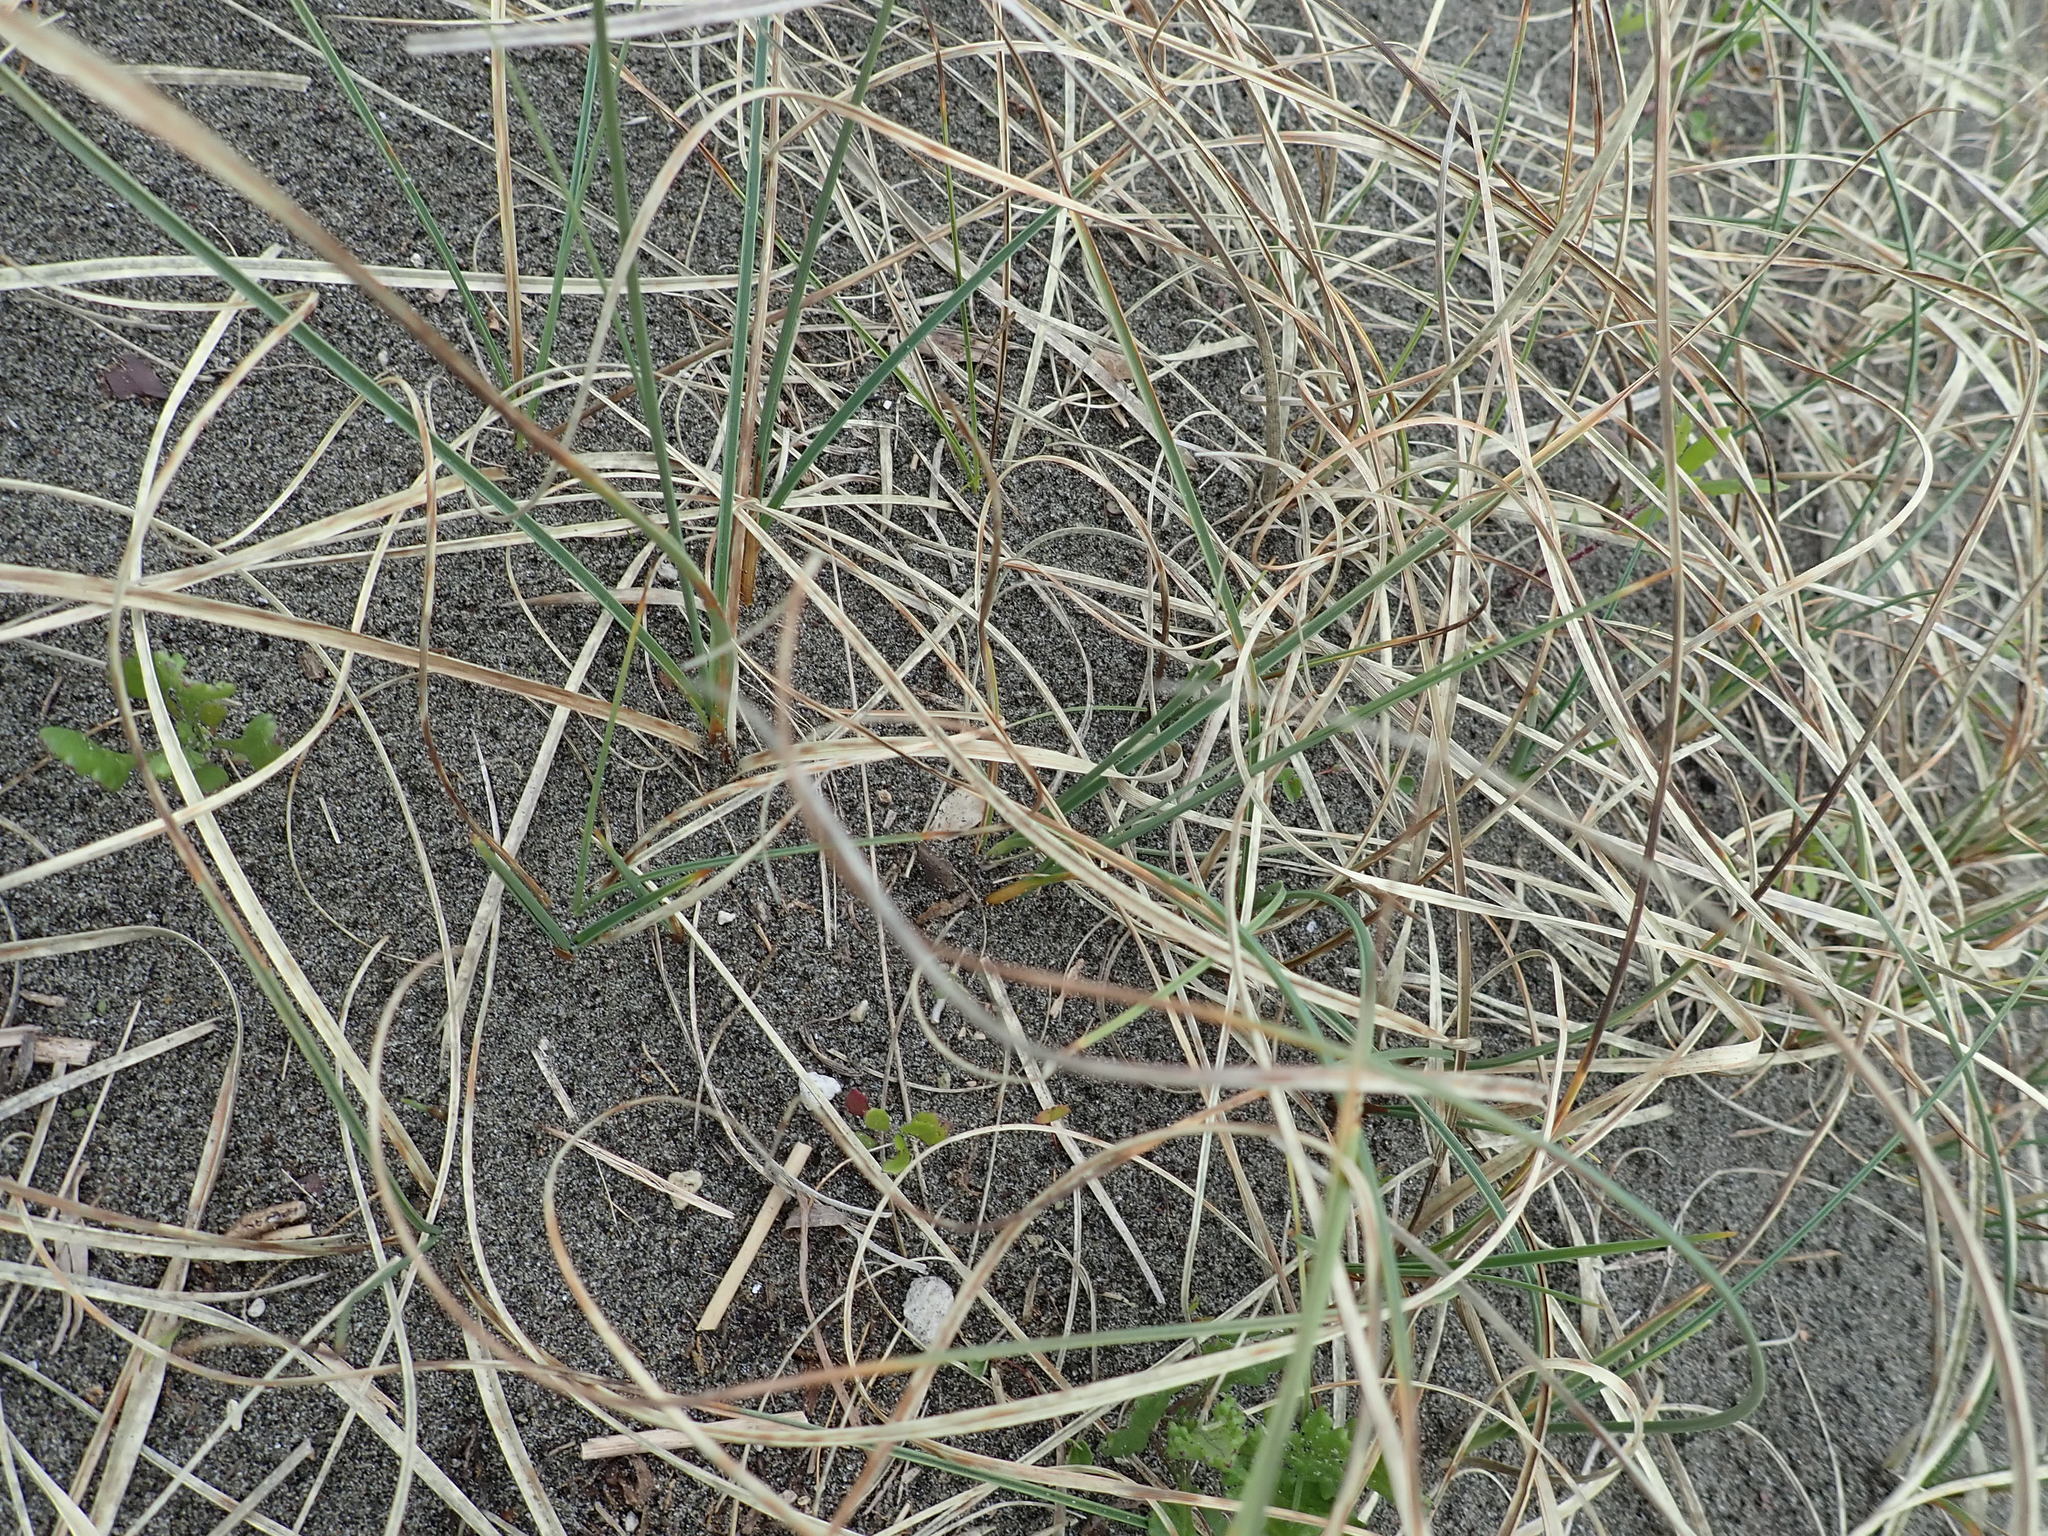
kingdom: Plantae
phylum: Tracheophyta
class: Liliopsida
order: Poales
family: Cyperaceae
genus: Carex
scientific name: Carex pumila
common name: Dwarf sedge
